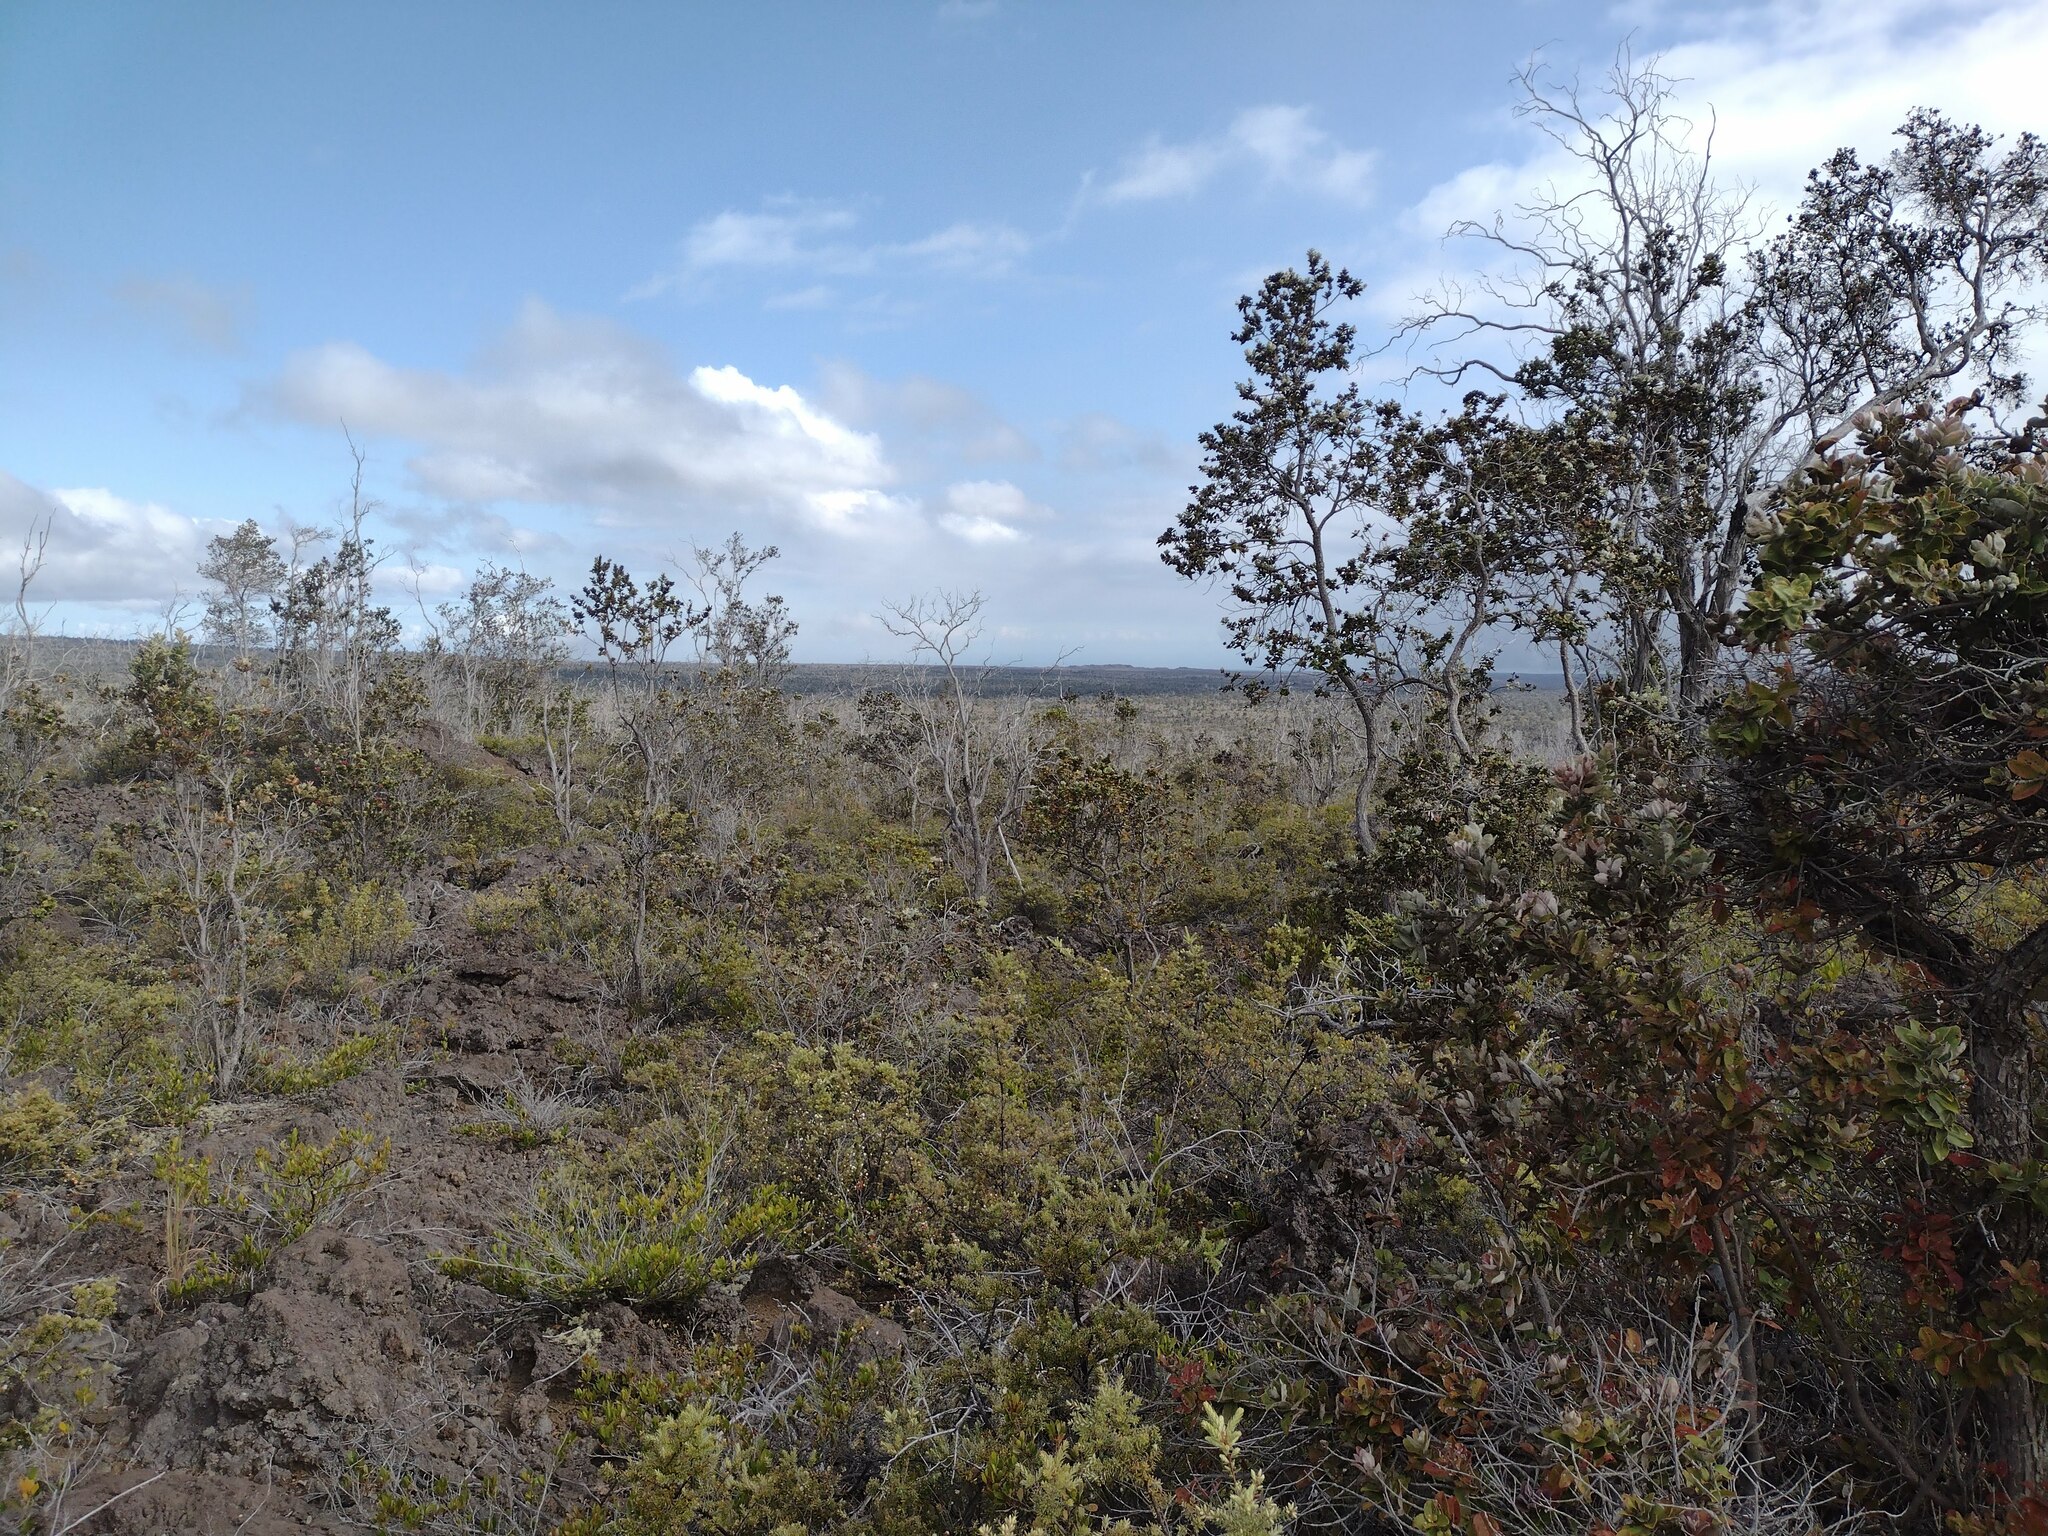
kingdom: Plantae
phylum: Tracheophyta
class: Magnoliopsida
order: Ericales
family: Ericaceae
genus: Leptecophylla
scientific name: Leptecophylla tameiameiae
